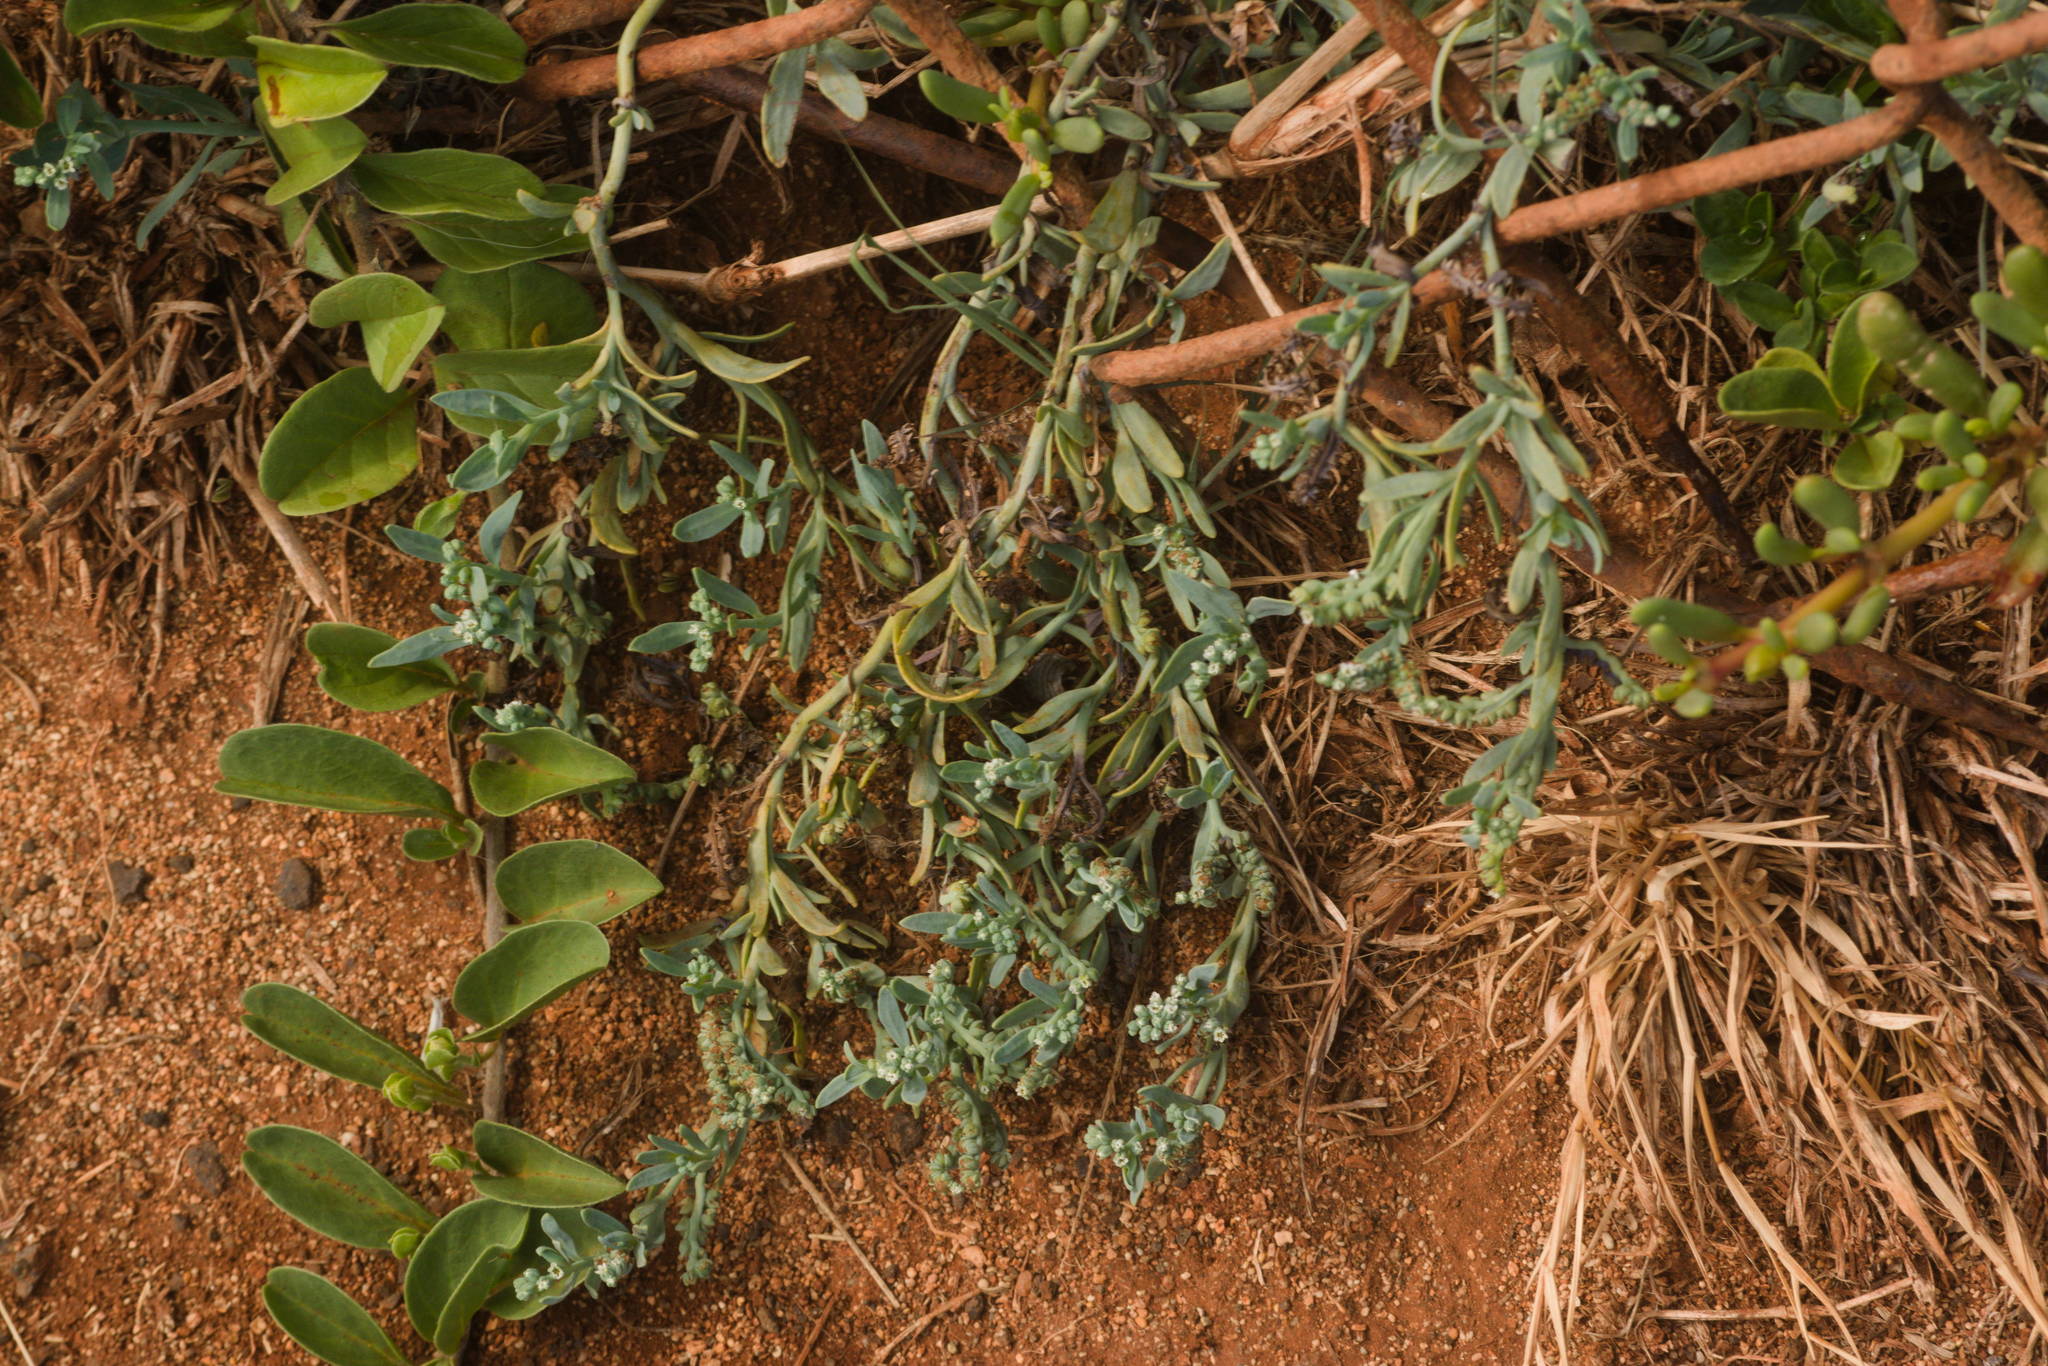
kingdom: Plantae
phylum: Tracheophyta
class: Magnoliopsida
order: Boraginales
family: Heliotropiaceae
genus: Heliotropium
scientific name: Heliotropium curassavicum
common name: Seaside heliotrope
